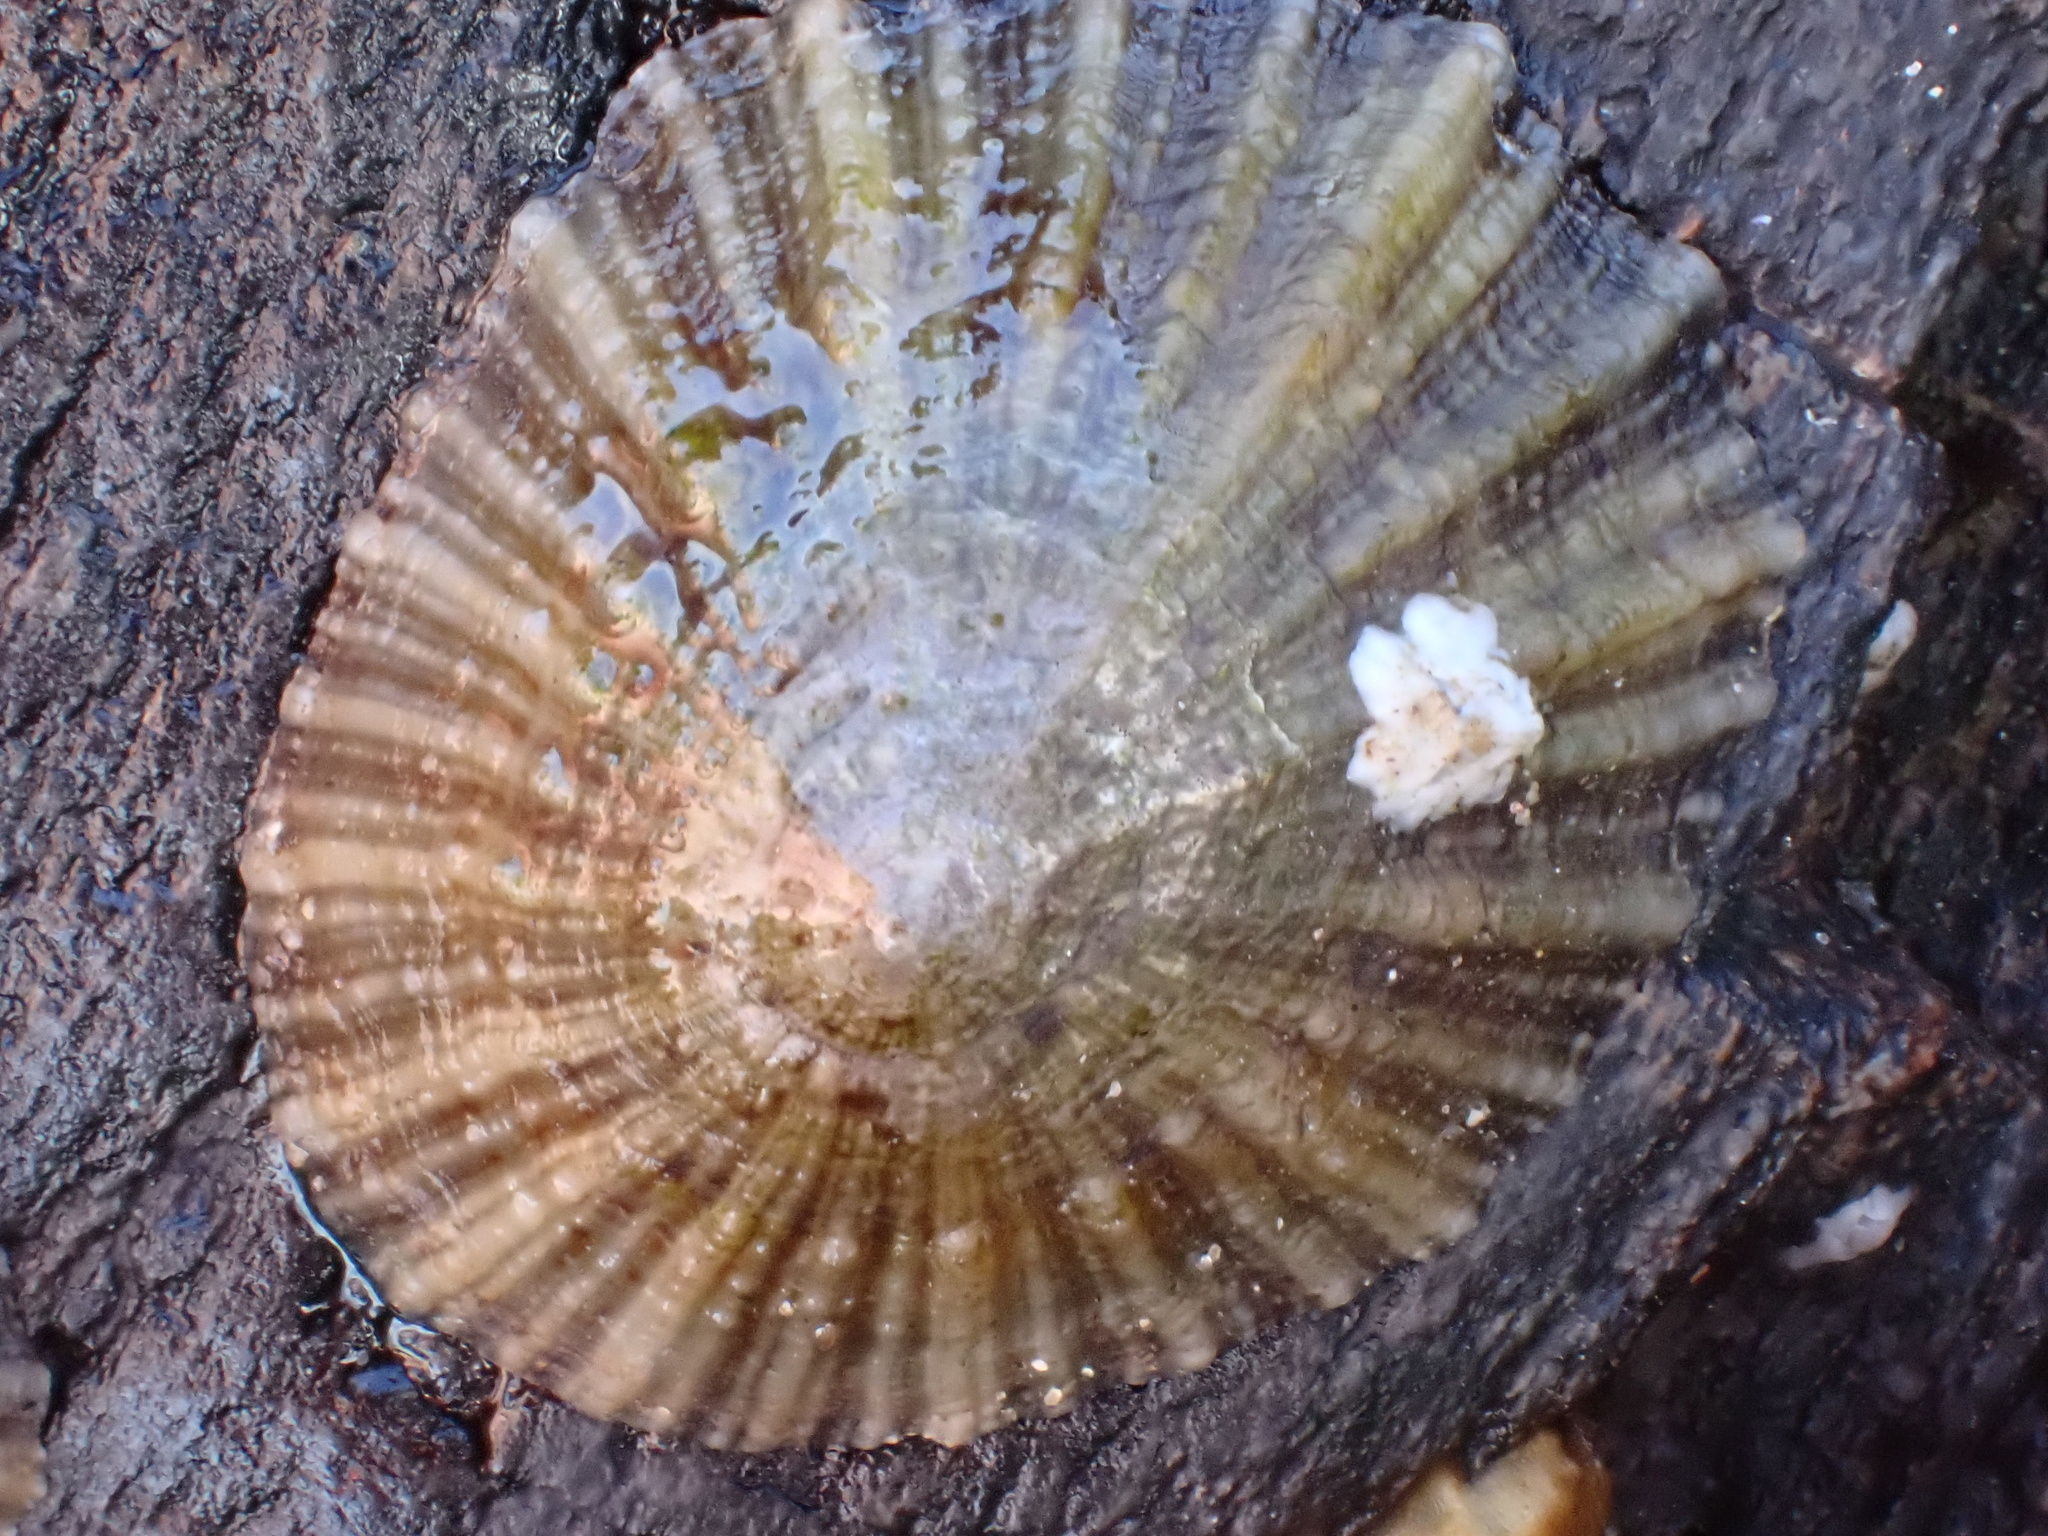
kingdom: Animalia
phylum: Mollusca
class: Gastropoda
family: Patellidae
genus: Patella
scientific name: Patella
